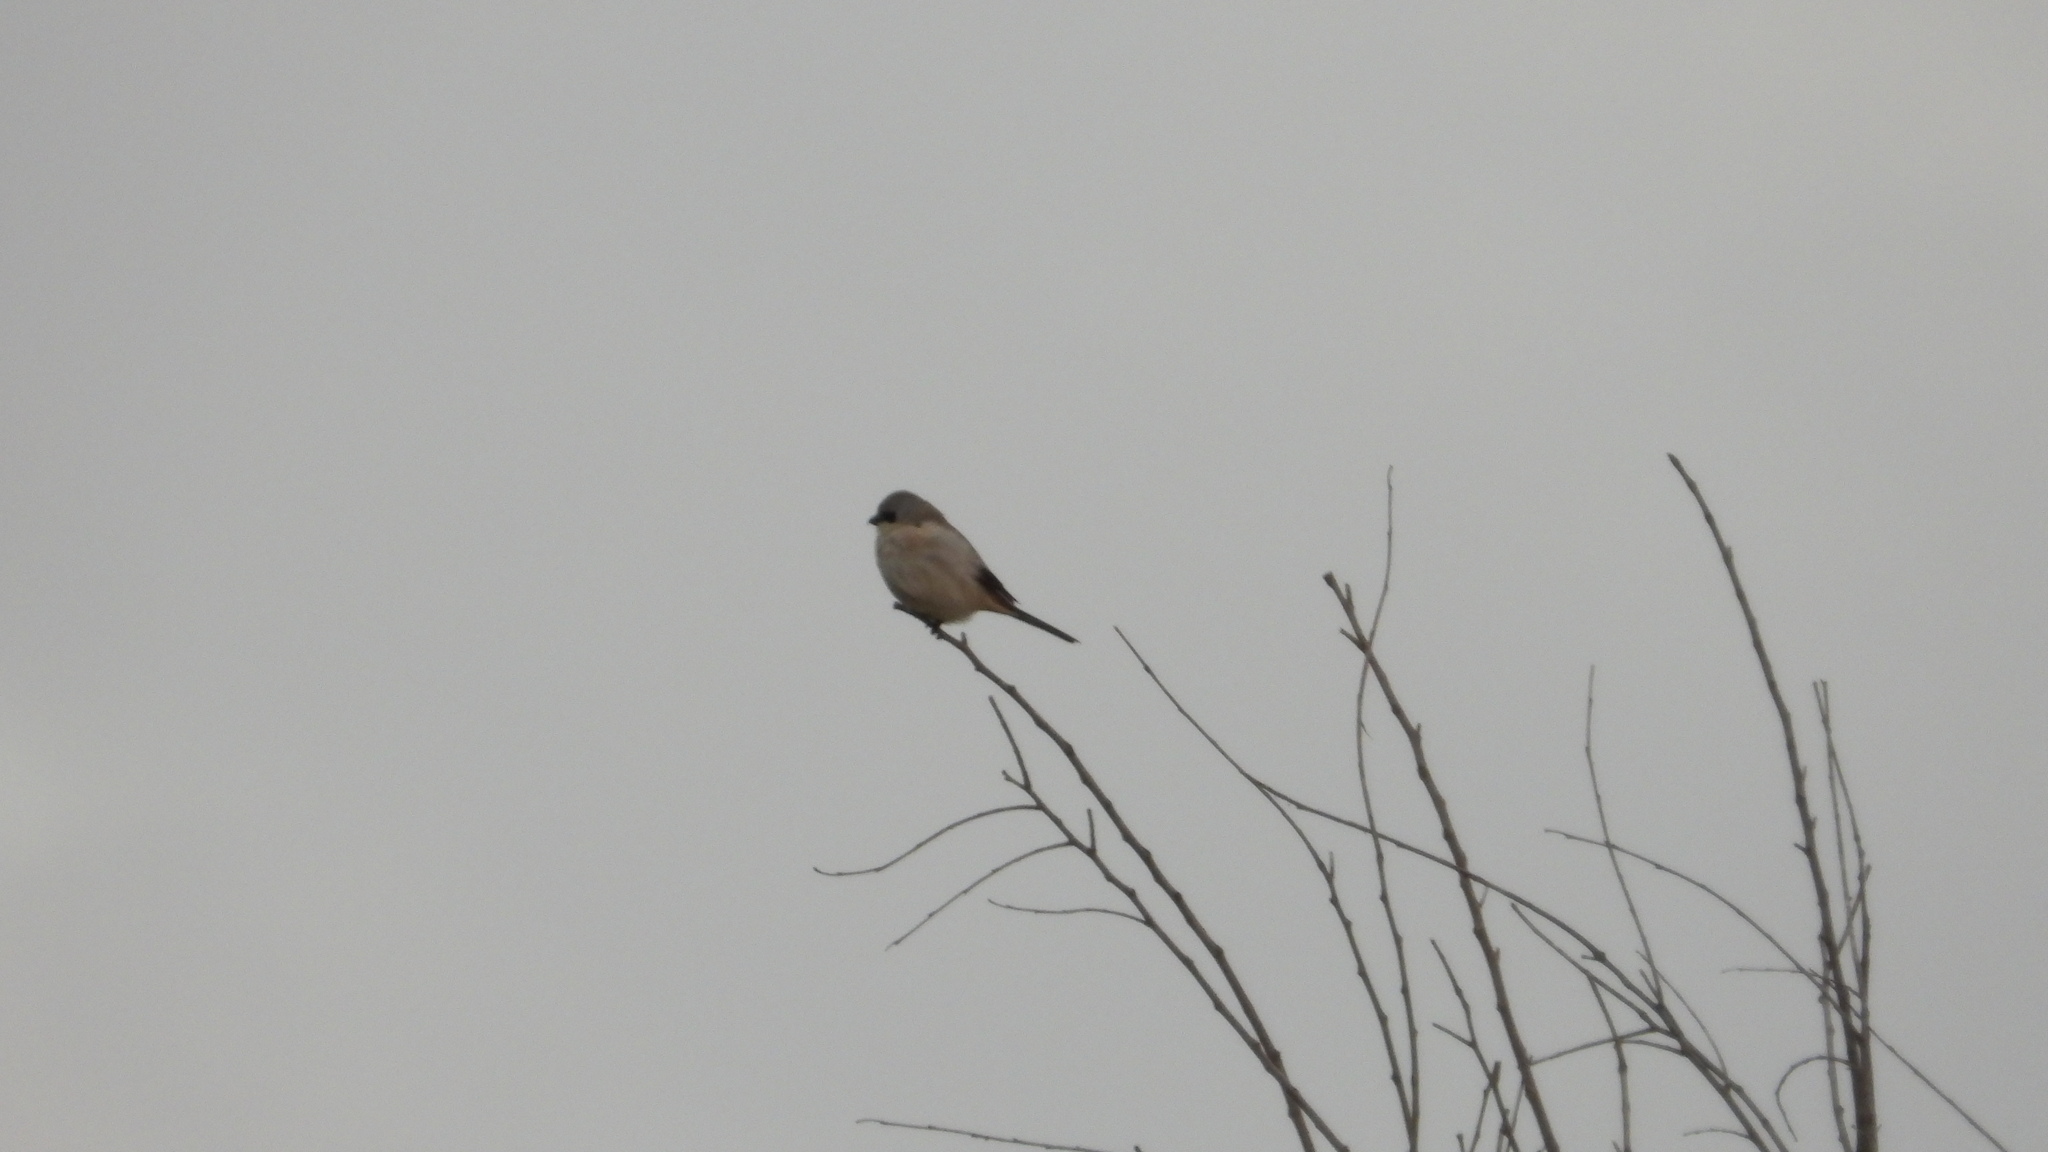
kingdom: Animalia
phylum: Chordata
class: Aves
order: Passeriformes
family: Laniidae
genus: Lanius
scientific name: Lanius borealis
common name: Northern shrike
